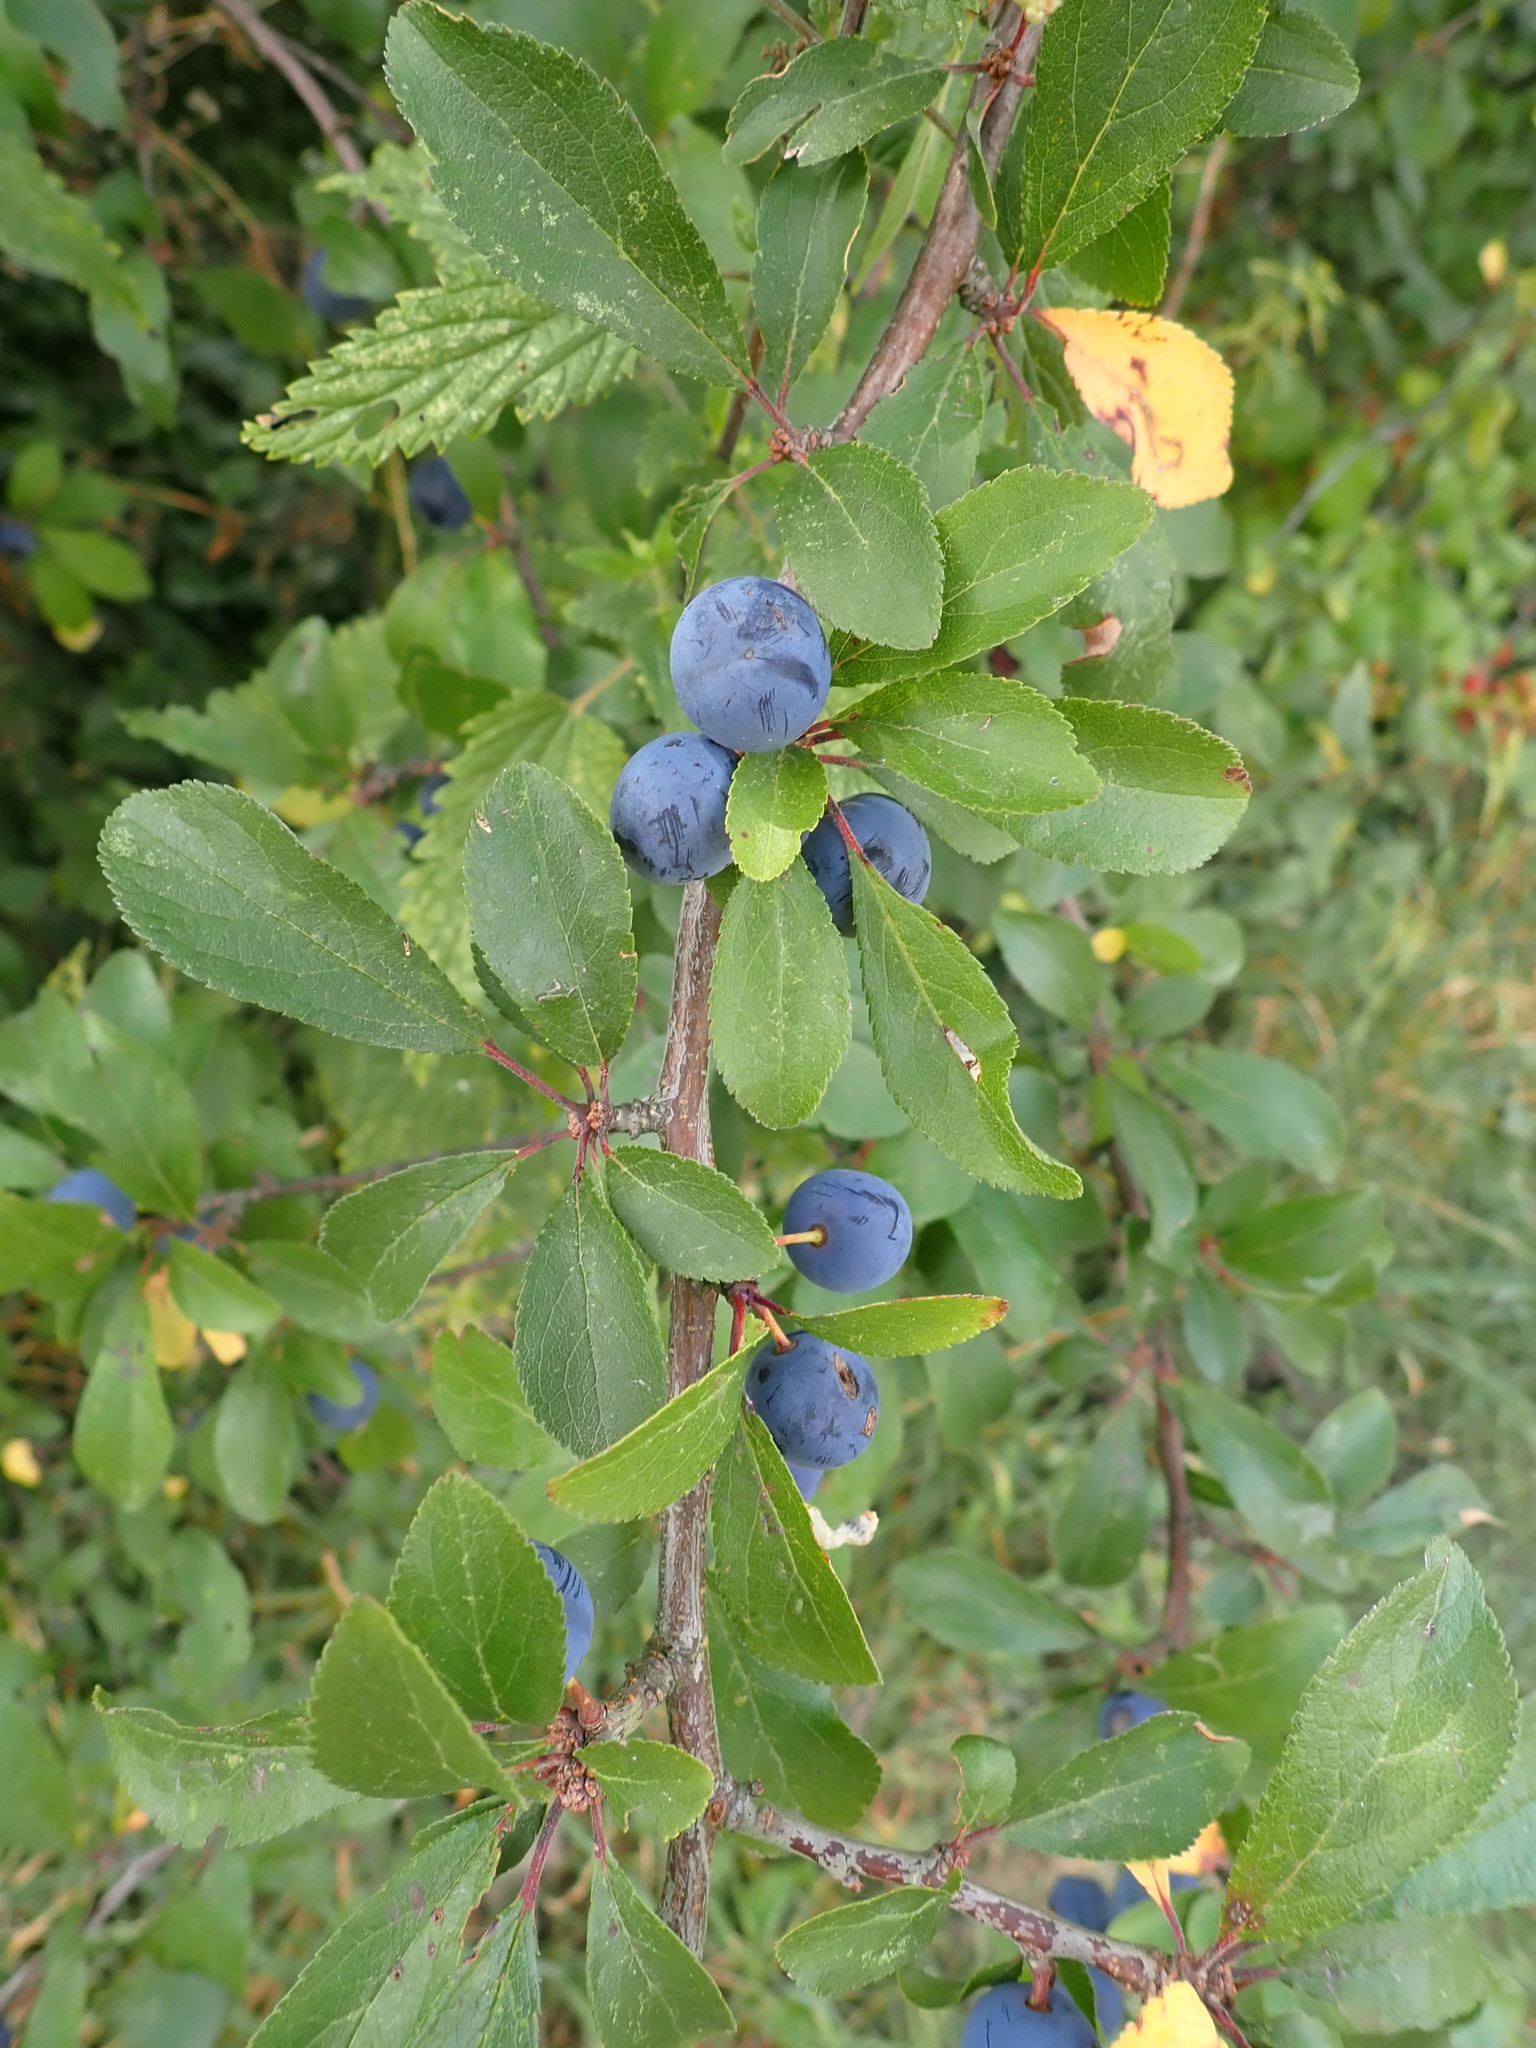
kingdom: Plantae
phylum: Tracheophyta
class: Magnoliopsida
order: Rosales
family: Rosaceae
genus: Prunus
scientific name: Prunus spinosa
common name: Blackthorn
